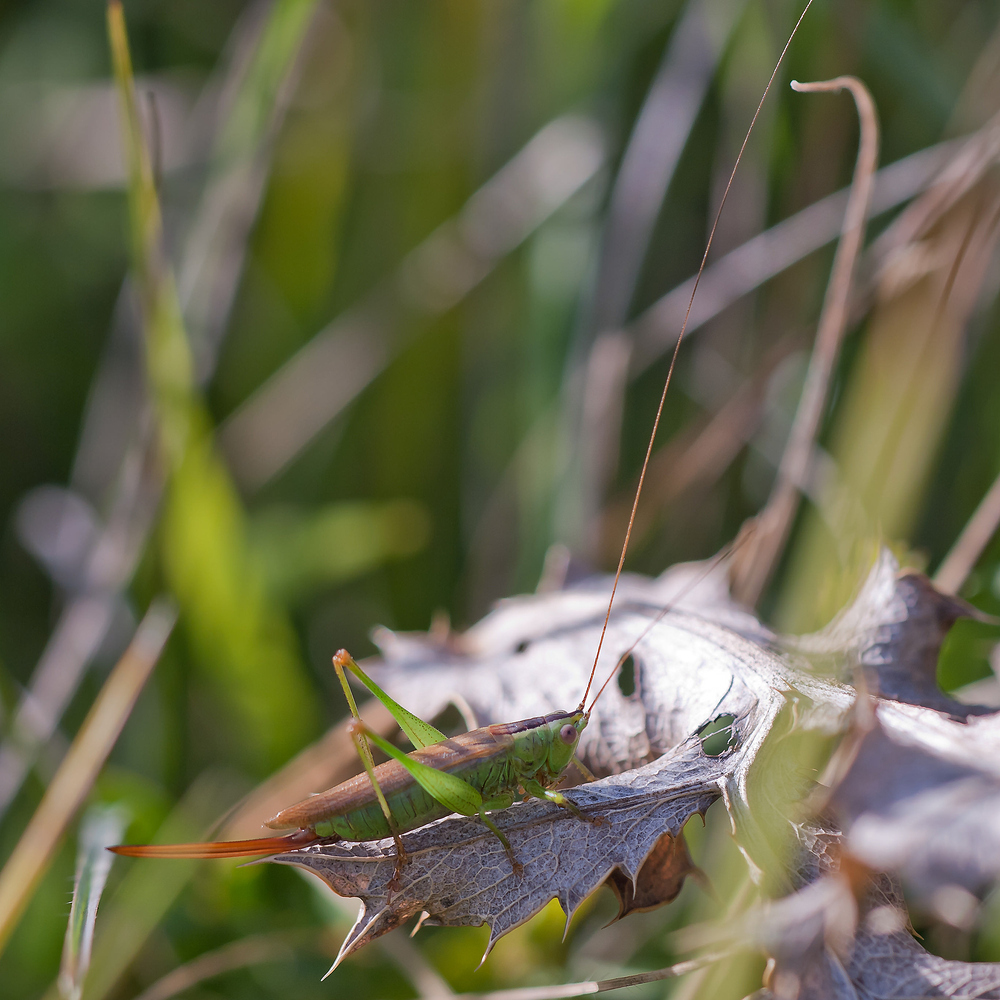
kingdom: Animalia
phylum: Arthropoda
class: Insecta
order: Orthoptera
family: Tettigoniidae
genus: Conocephalus
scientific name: Conocephalus fuscus
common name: Long-winged conehead
